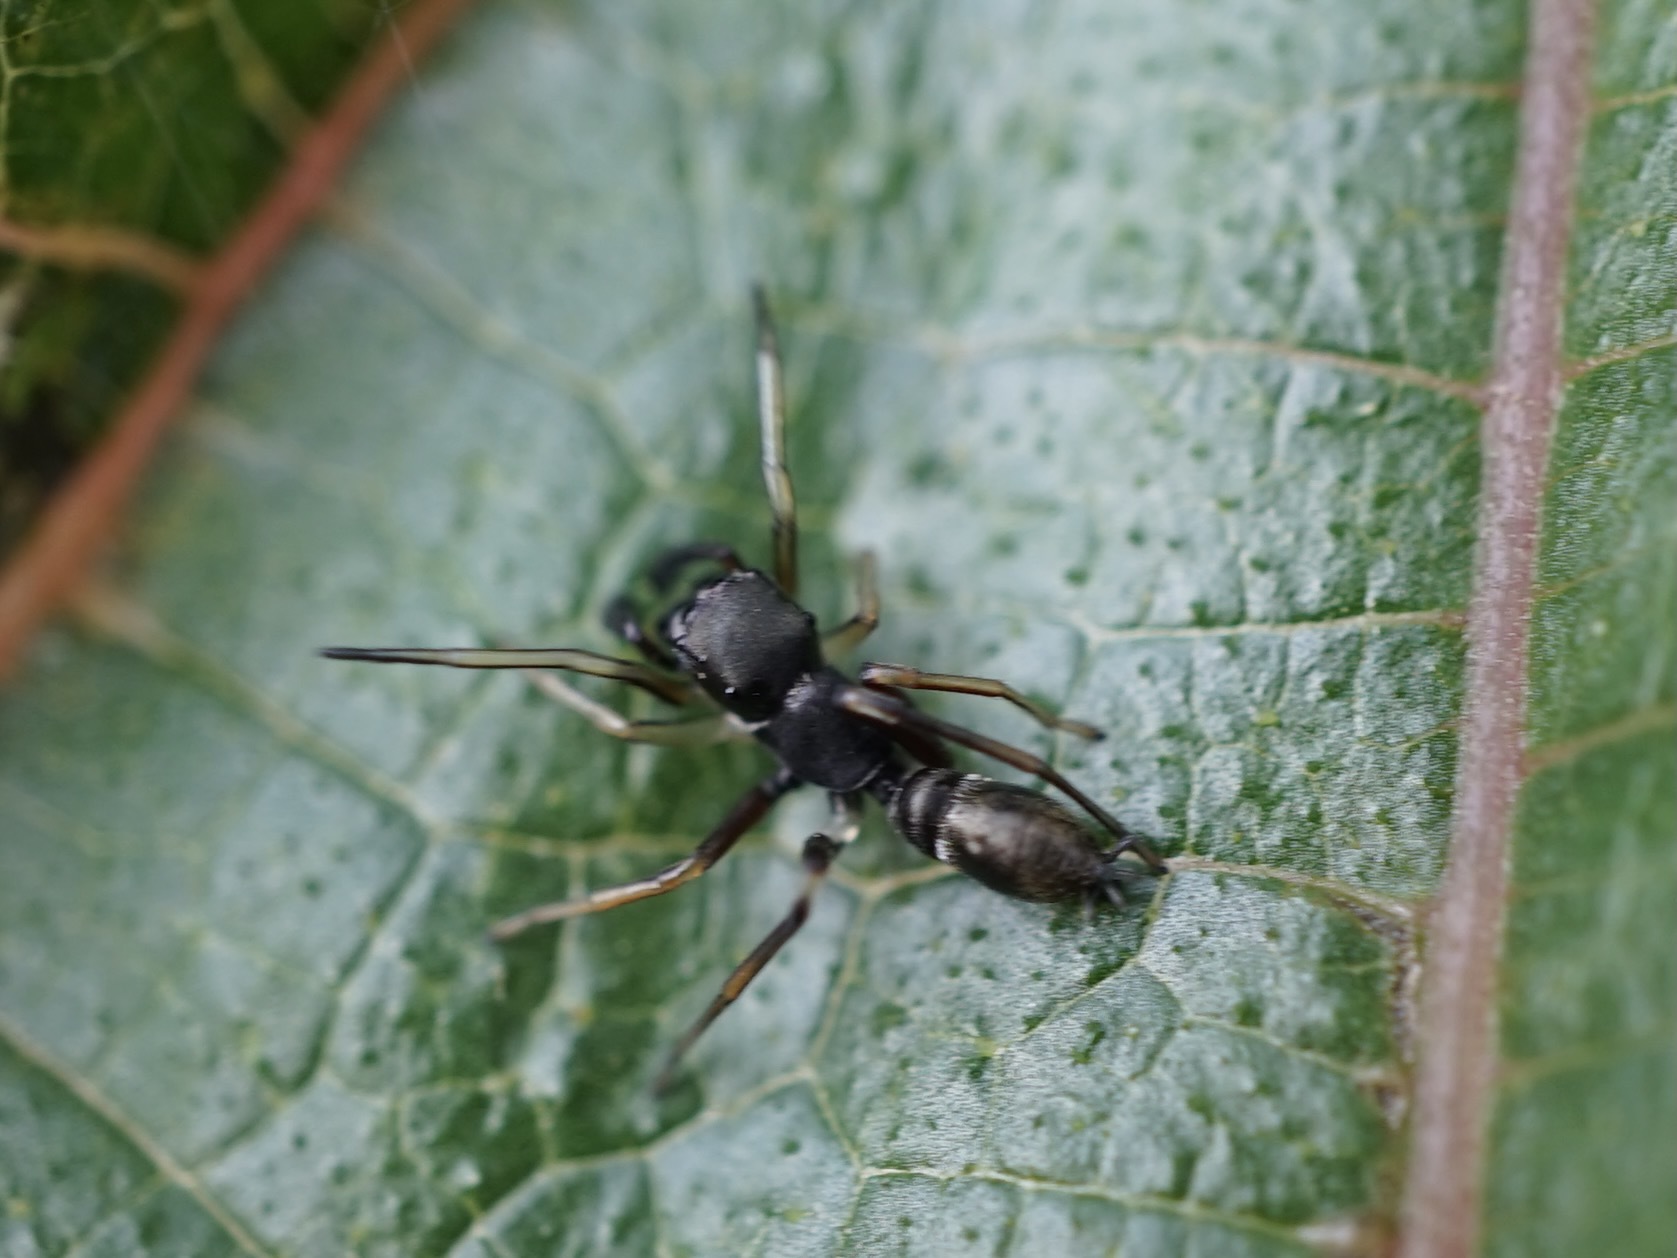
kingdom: Animalia
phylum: Arthropoda
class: Arachnida
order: Araneae
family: Salticidae
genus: Myrmarachne
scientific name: Myrmarachne japonica
